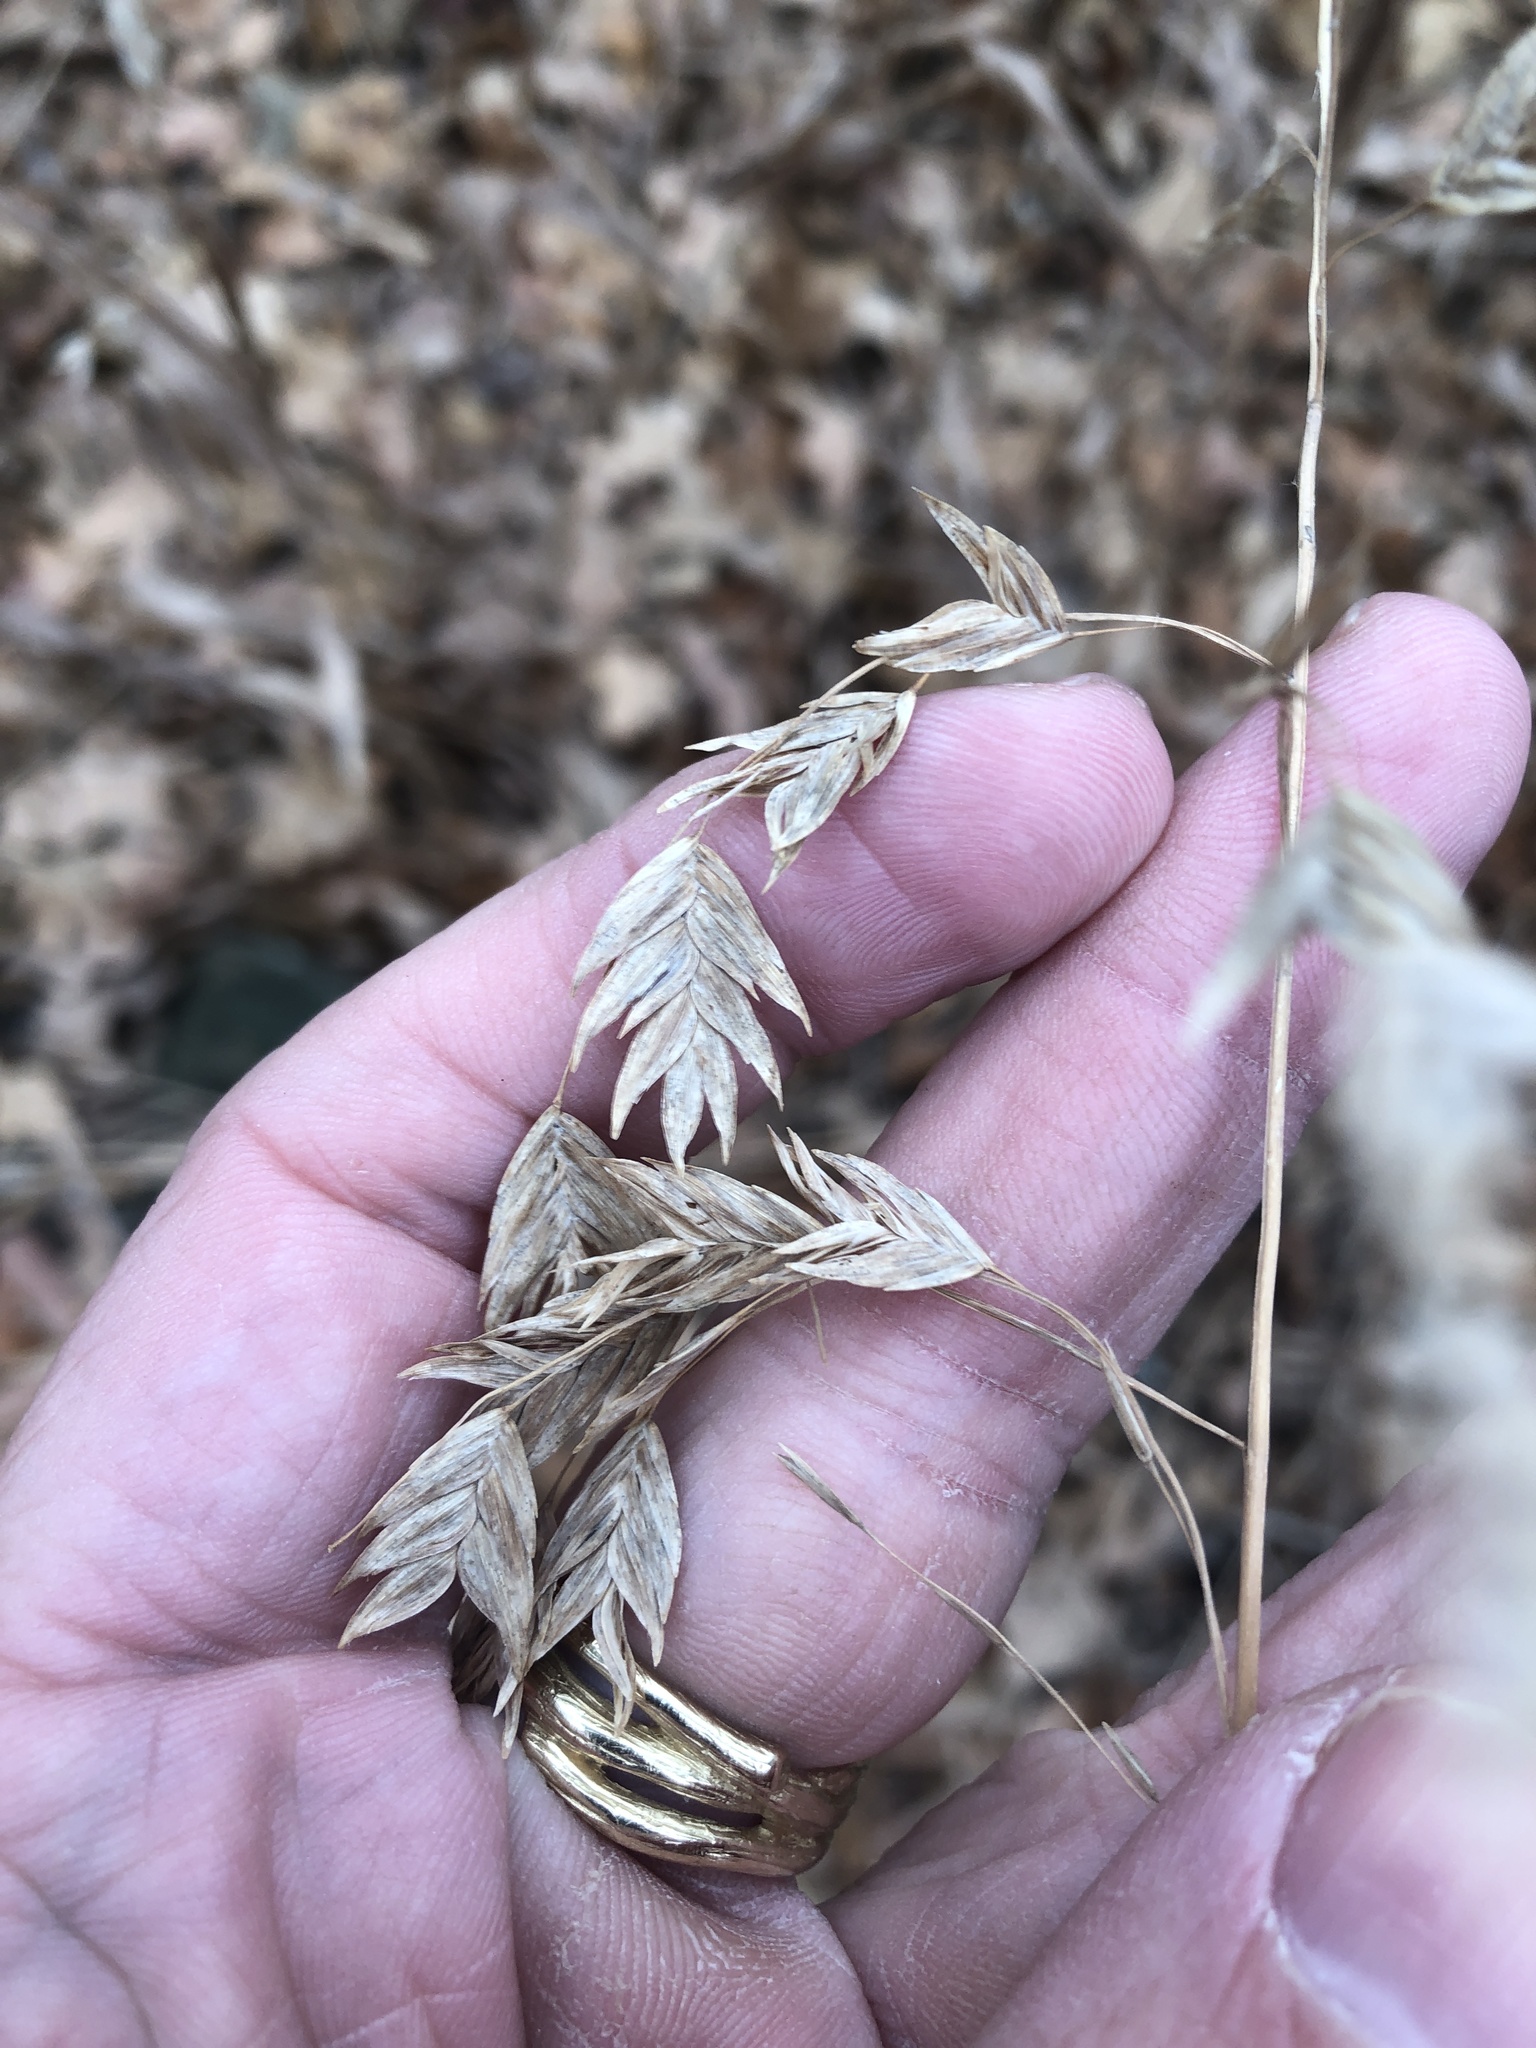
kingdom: Plantae
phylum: Tracheophyta
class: Liliopsida
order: Poales
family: Poaceae
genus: Chasmanthium
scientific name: Chasmanthium latifolium
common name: Broad-leaved chasmanthium
